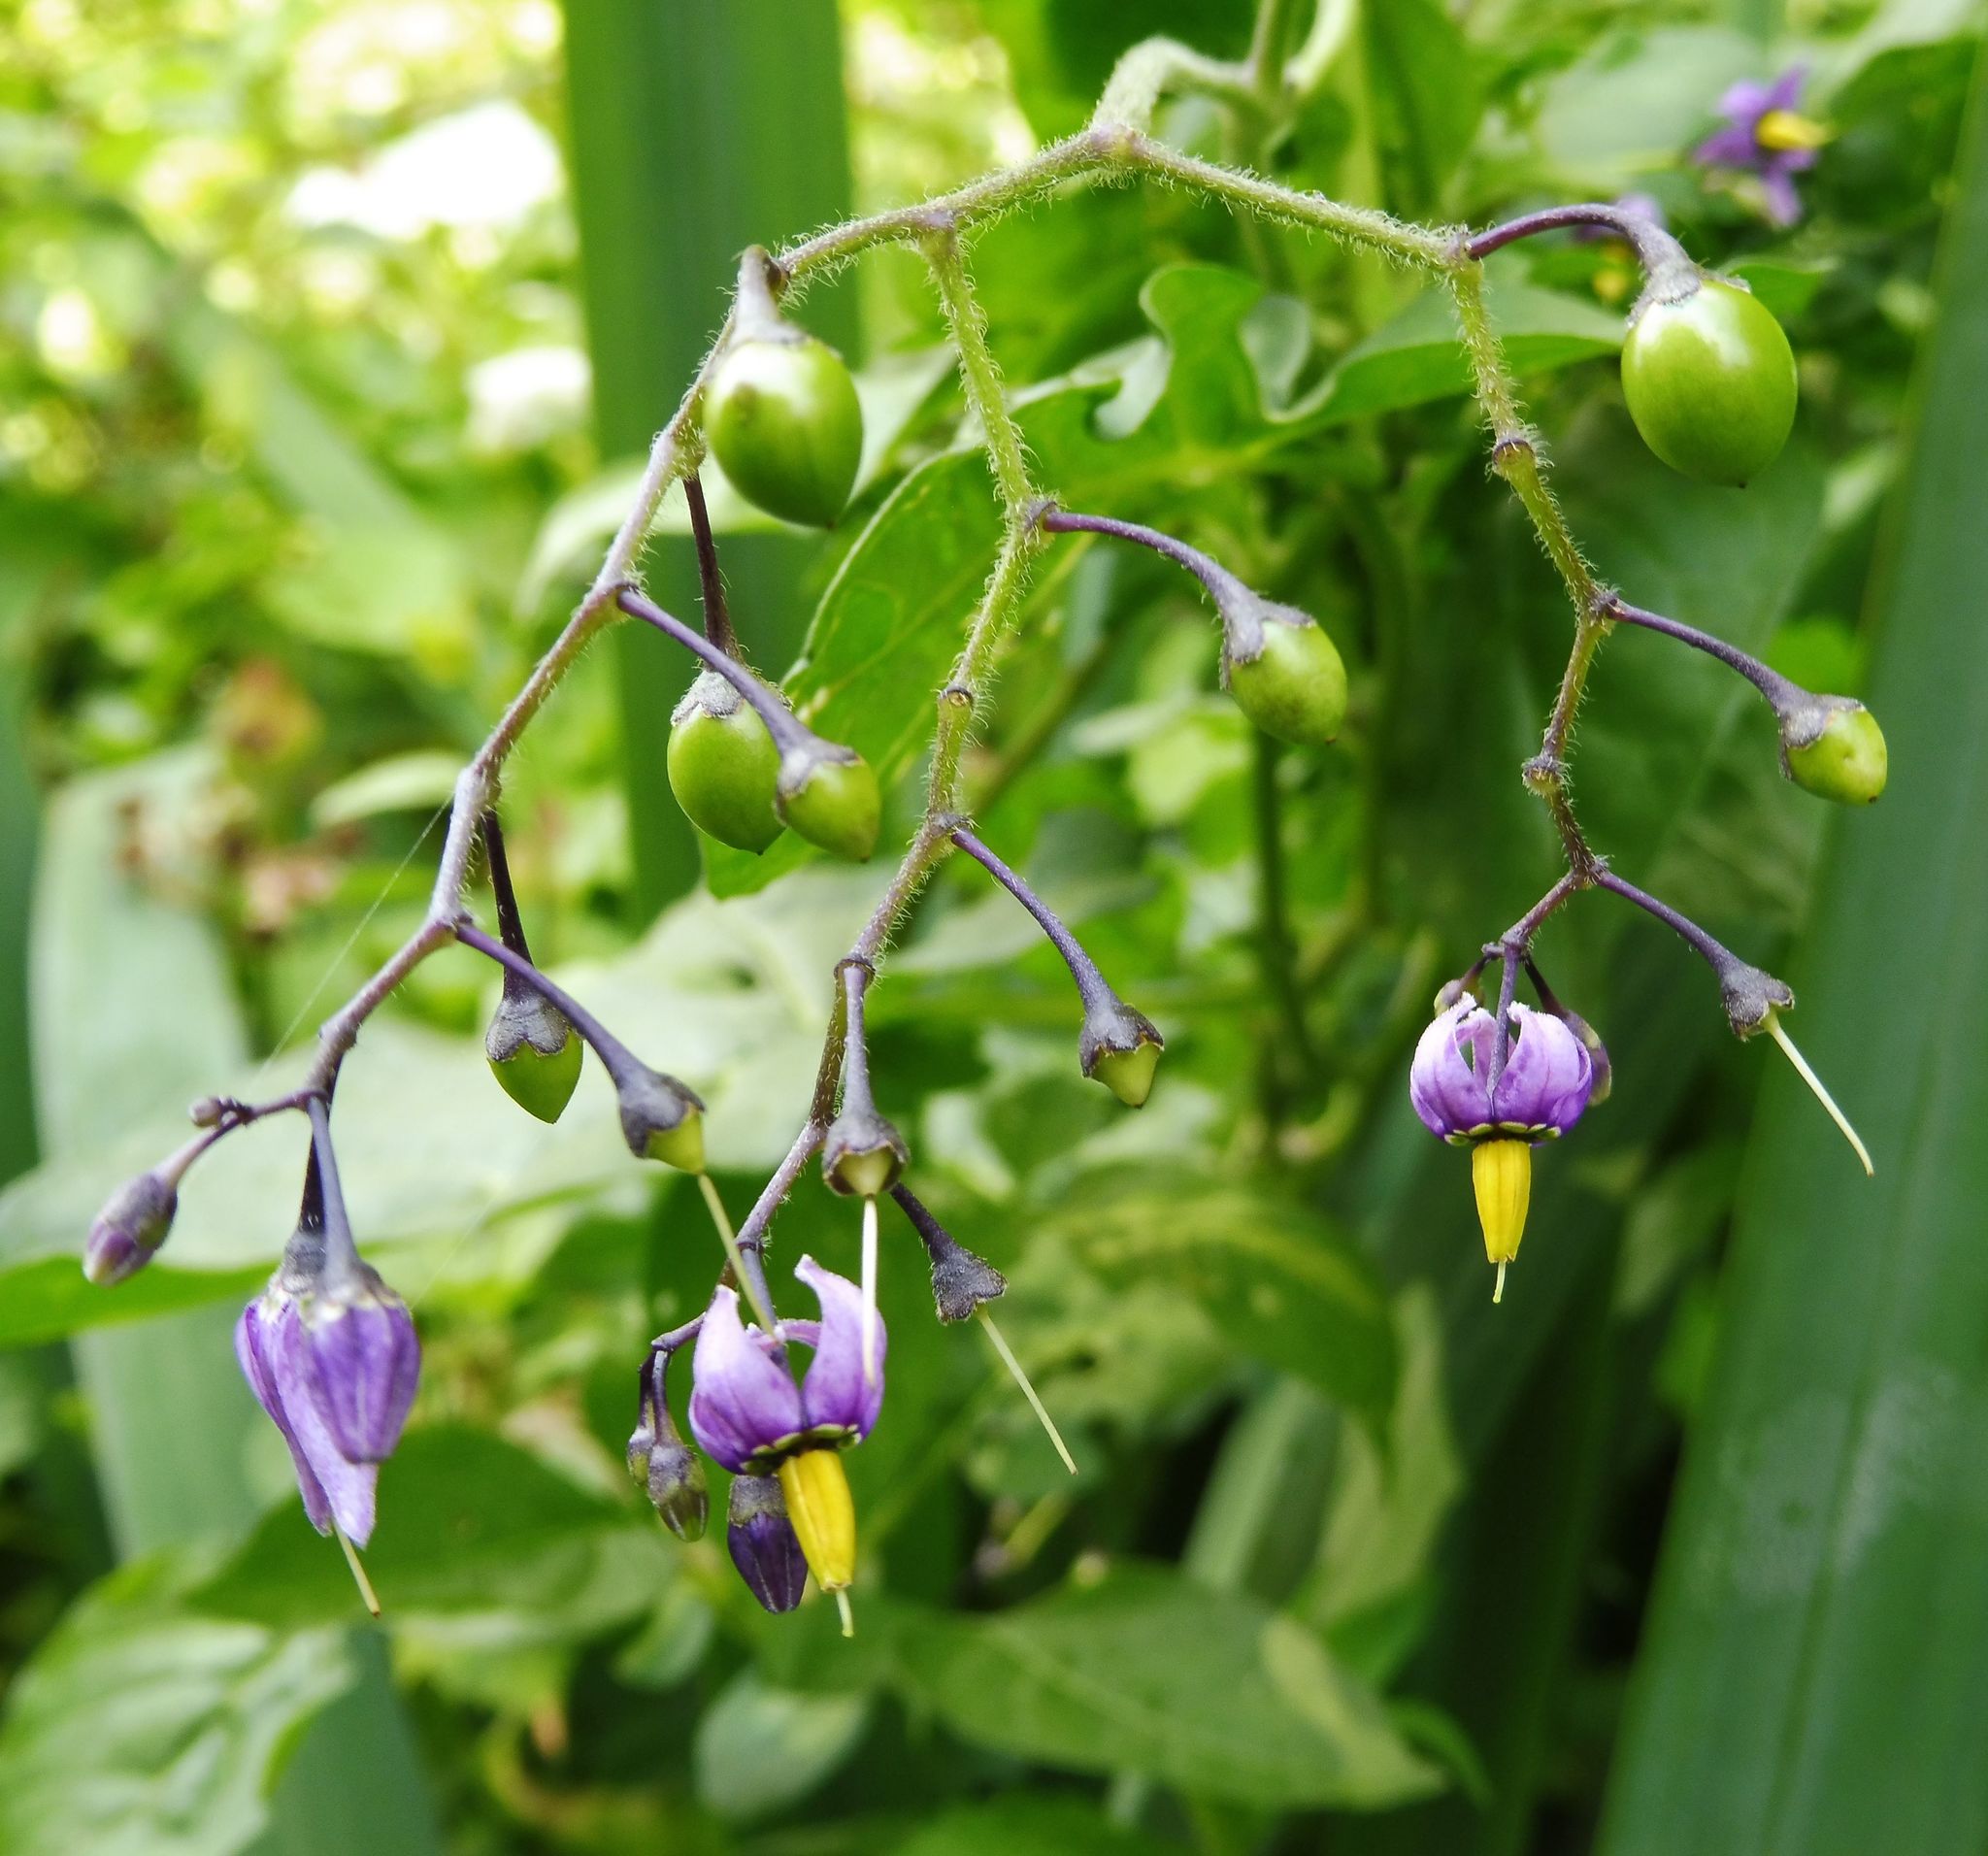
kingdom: Plantae
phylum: Tracheophyta
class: Magnoliopsida
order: Solanales
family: Solanaceae
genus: Solanum
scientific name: Solanum dulcamara
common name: Climbing nightshade
